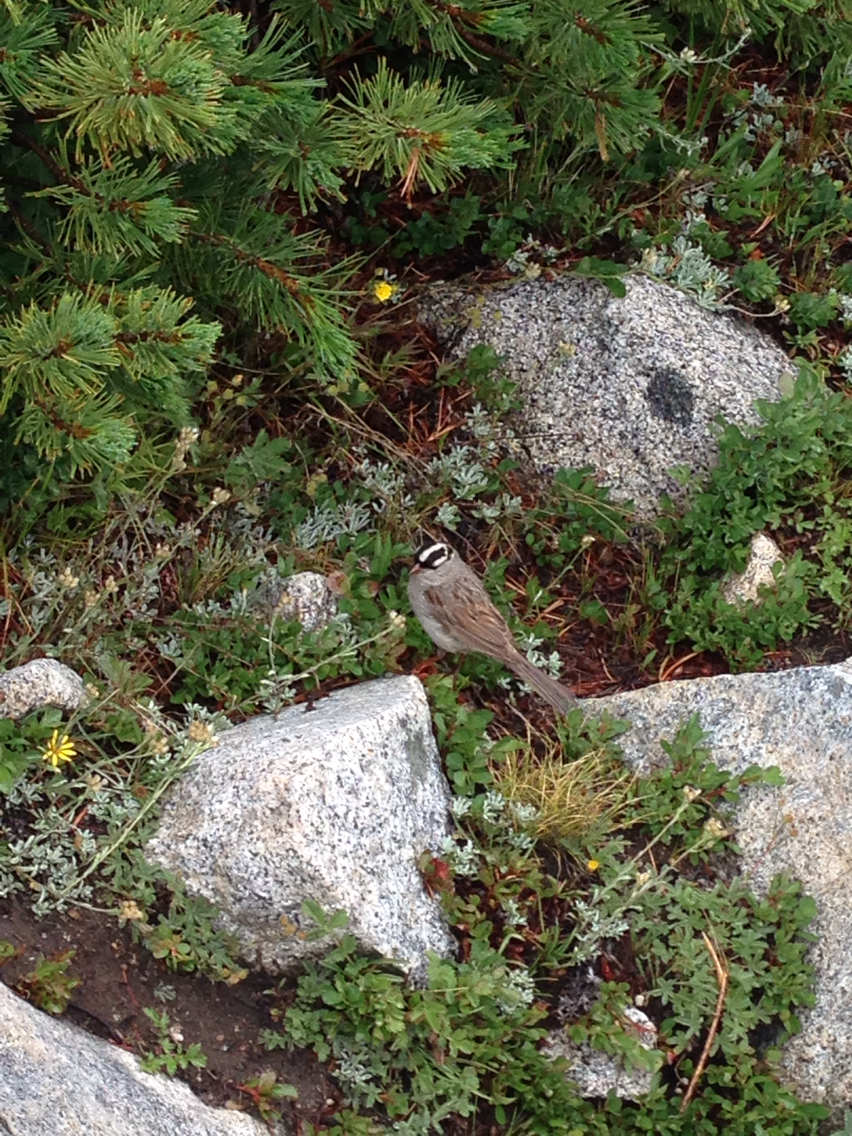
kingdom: Animalia
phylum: Chordata
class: Aves
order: Passeriformes
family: Passerellidae
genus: Zonotrichia
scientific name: Zonotrichia leucophrys
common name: White-crowned sparrow
